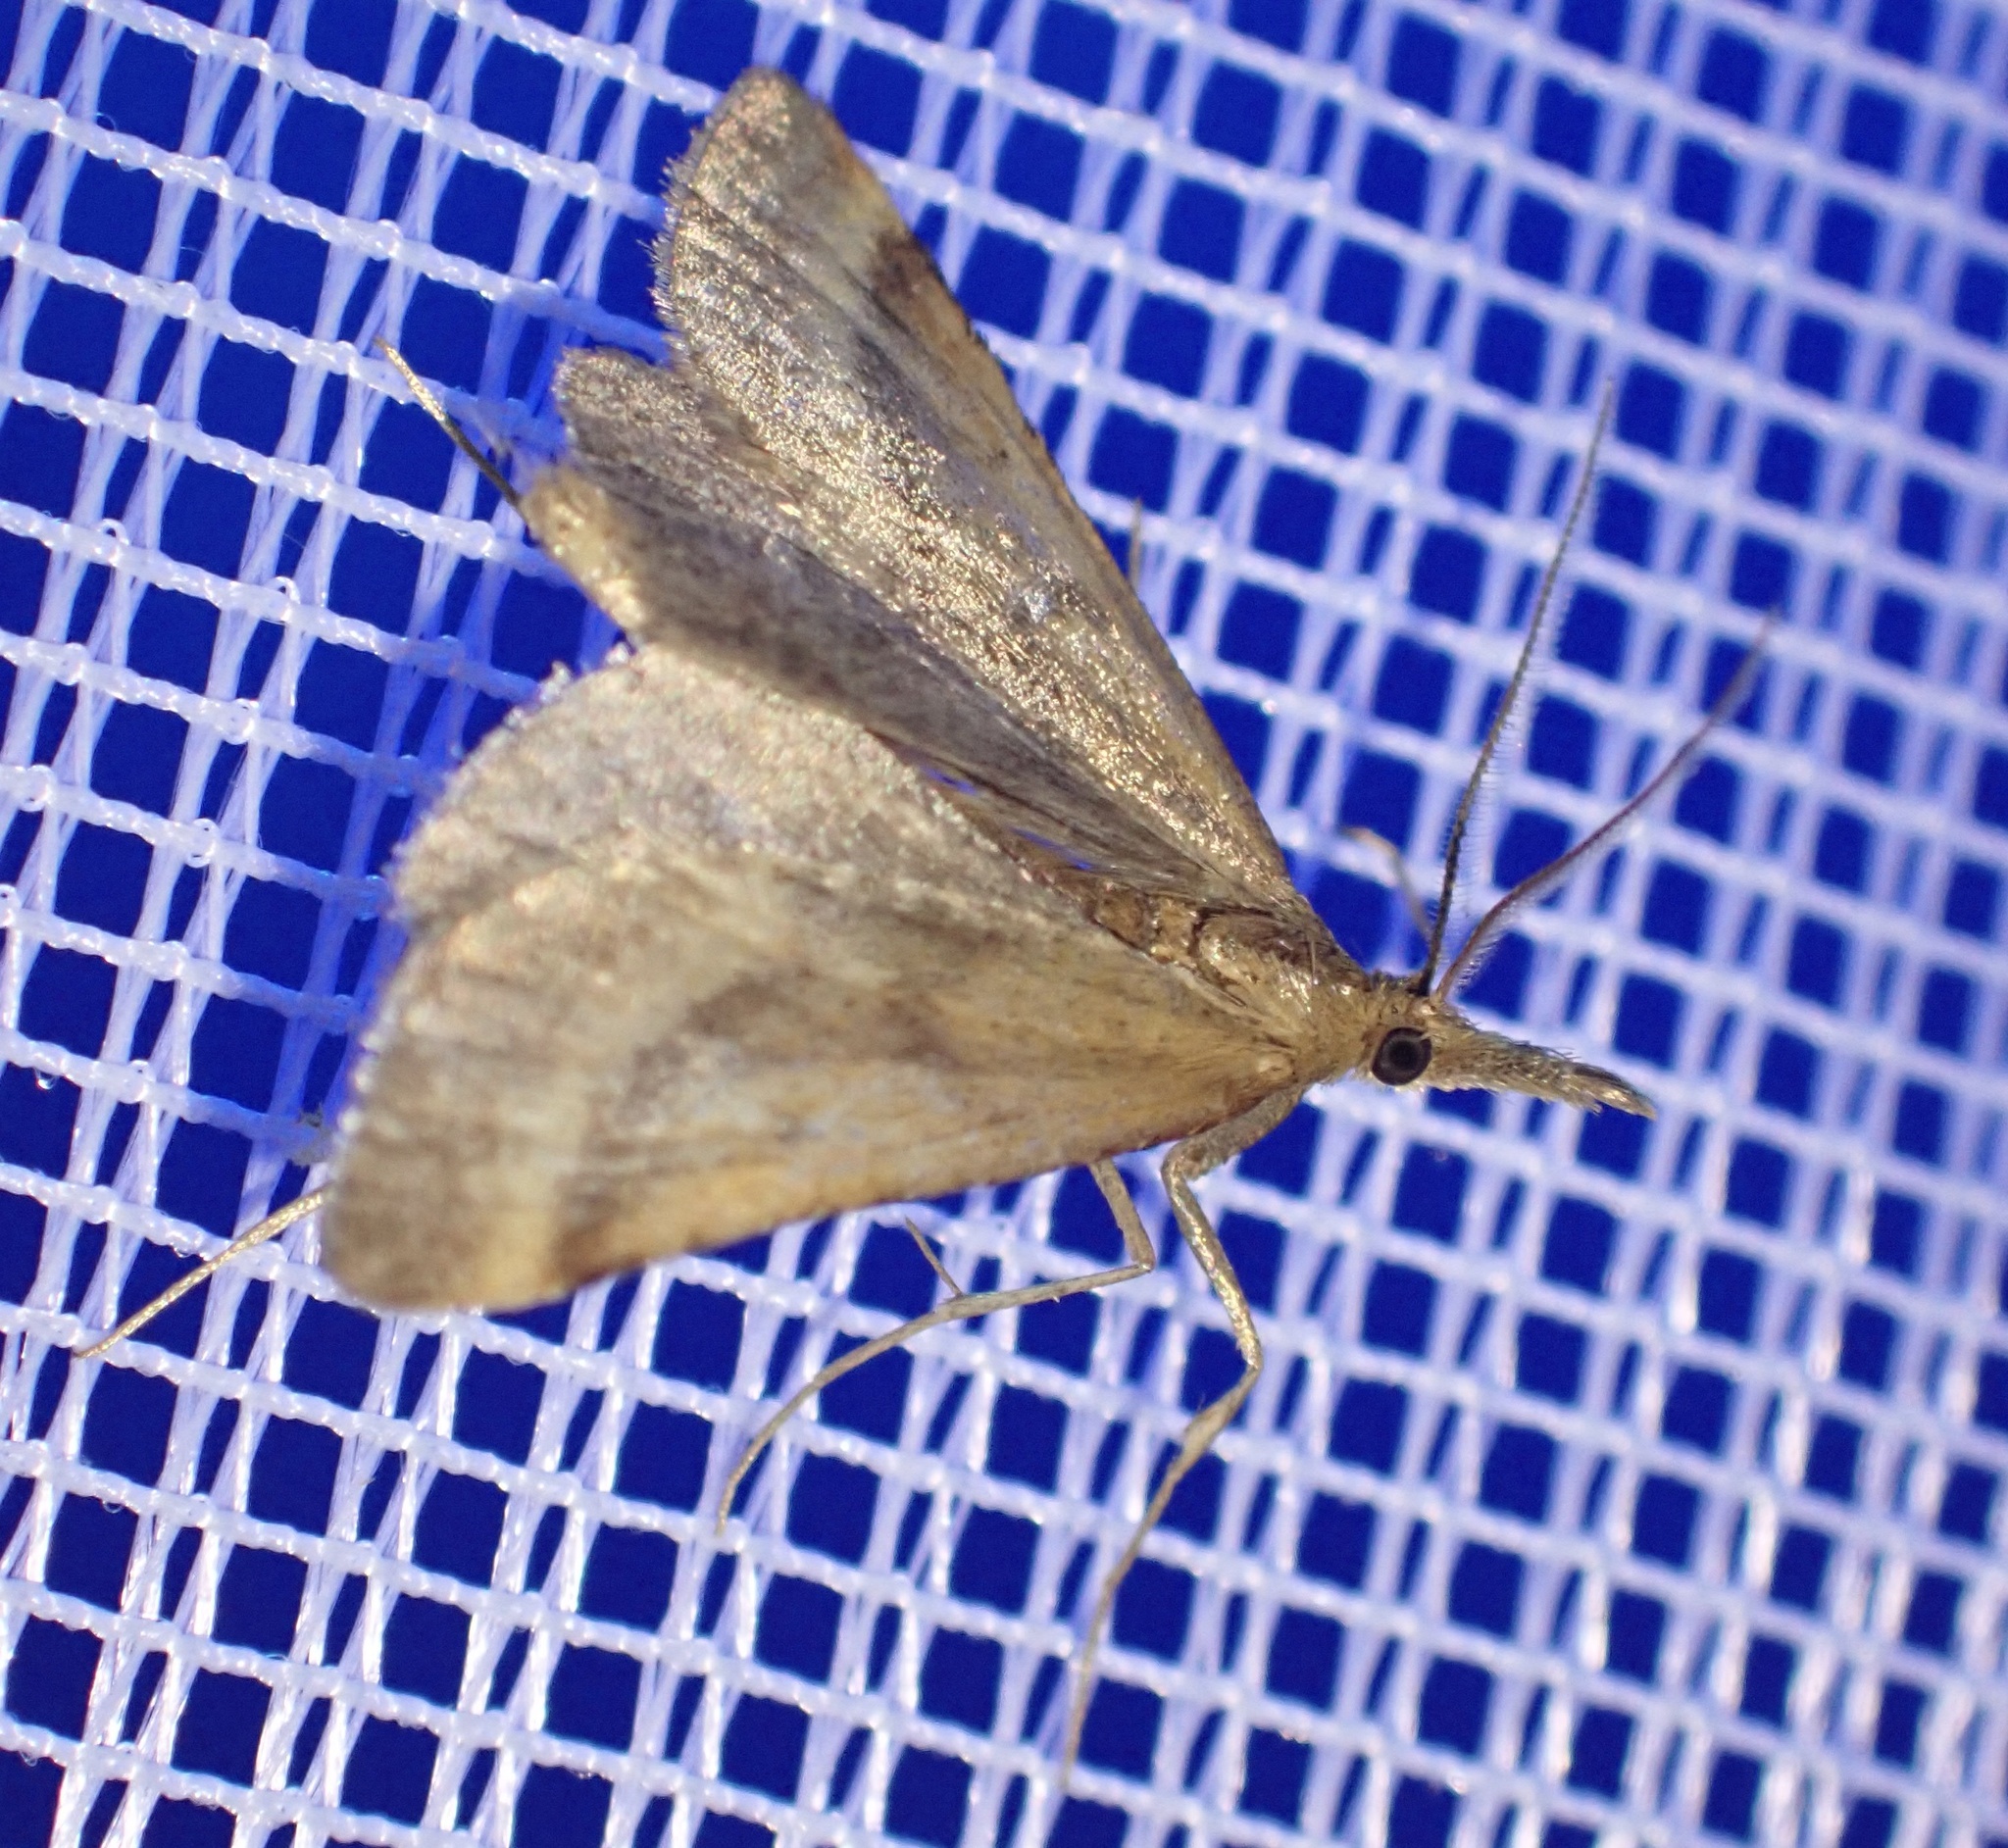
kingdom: Animalia
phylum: Arthropoda
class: Insecta
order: Lepidoptera
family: Pyralidae
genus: Synaphe
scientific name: Synaphe punctalis
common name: Long-legged tabby
